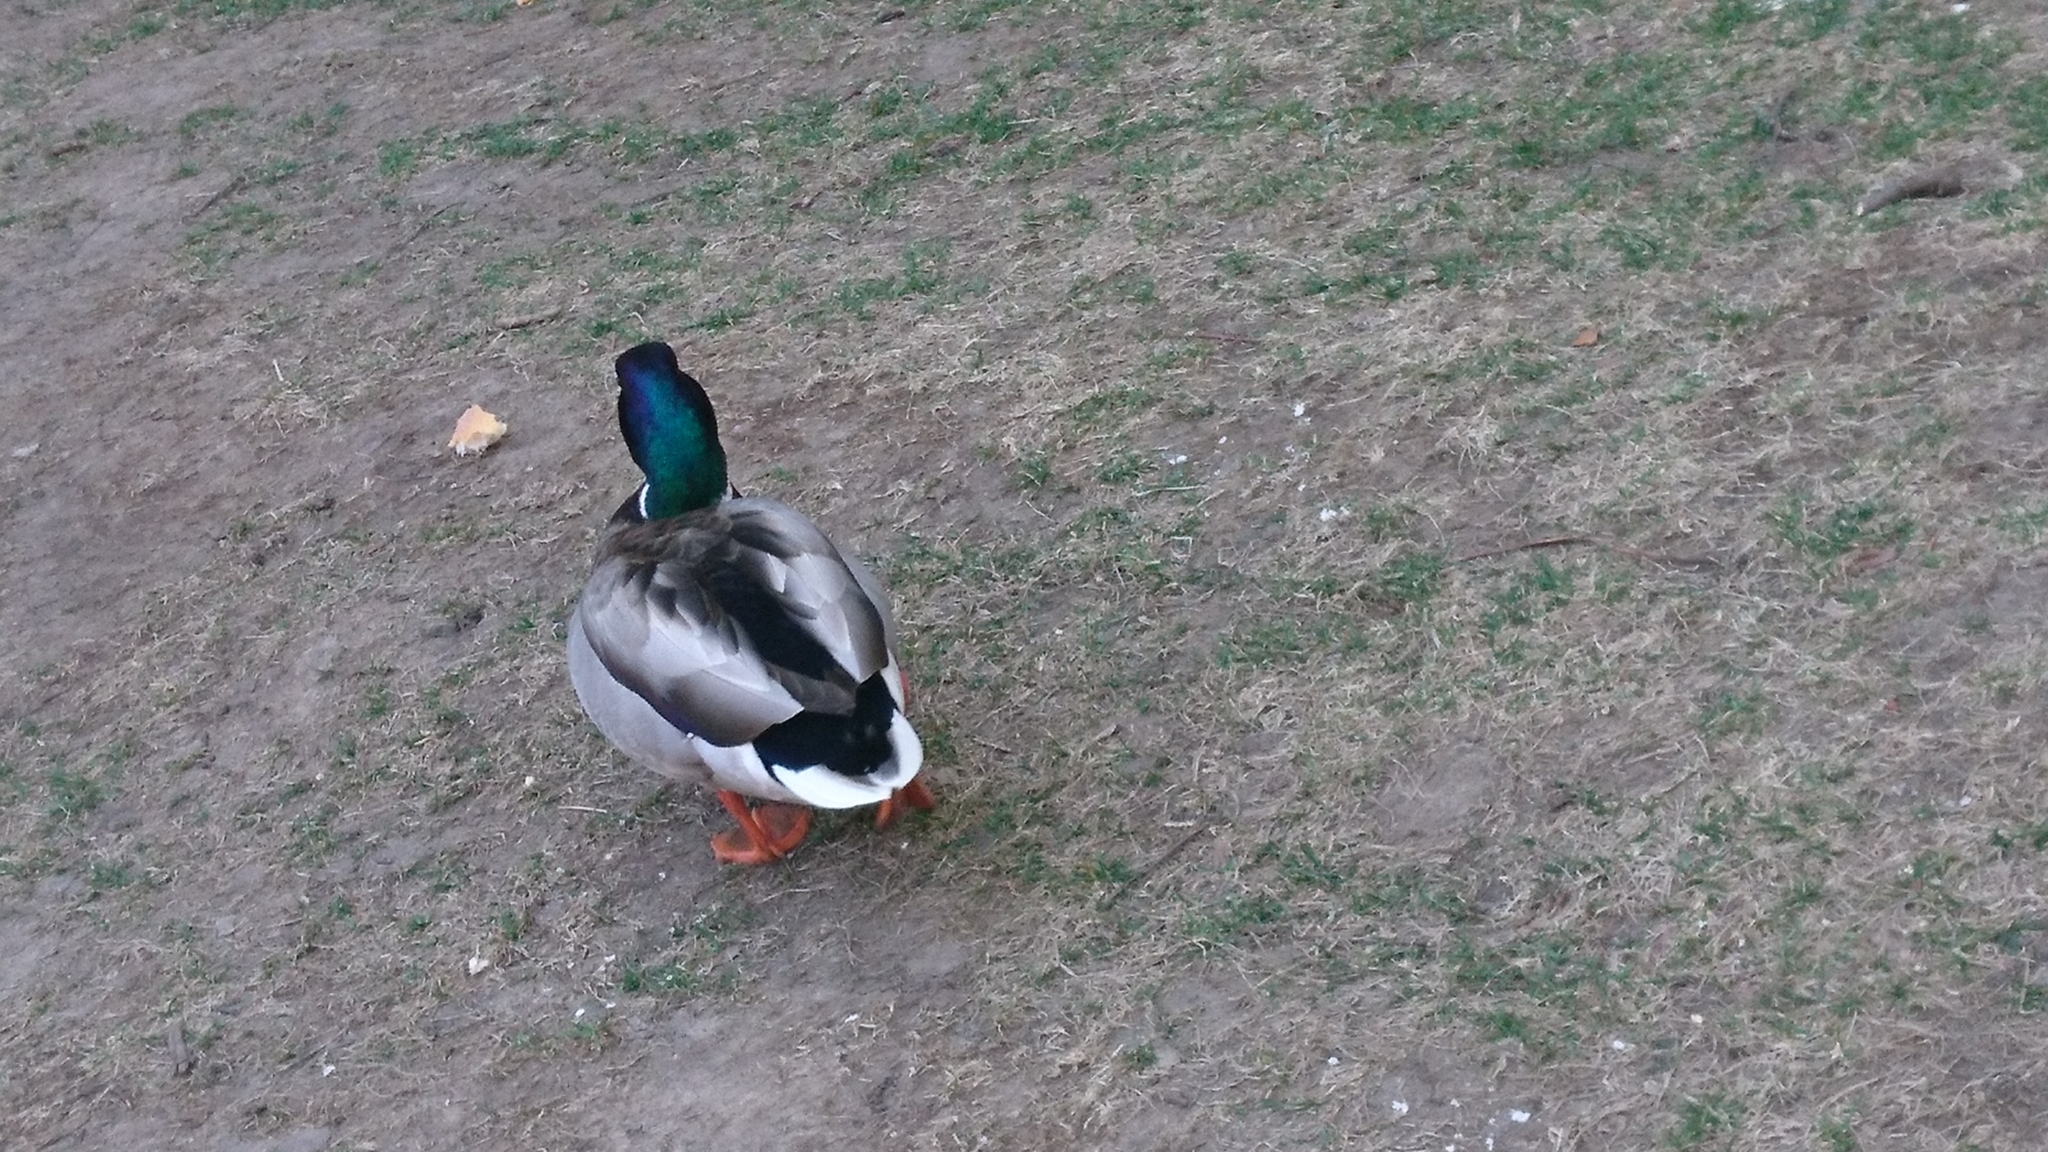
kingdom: Animalia
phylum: Chordata
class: Aves
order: Anseriformes
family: Anatidae
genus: Anas
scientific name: Anas platyrhynchos
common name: Mallard
